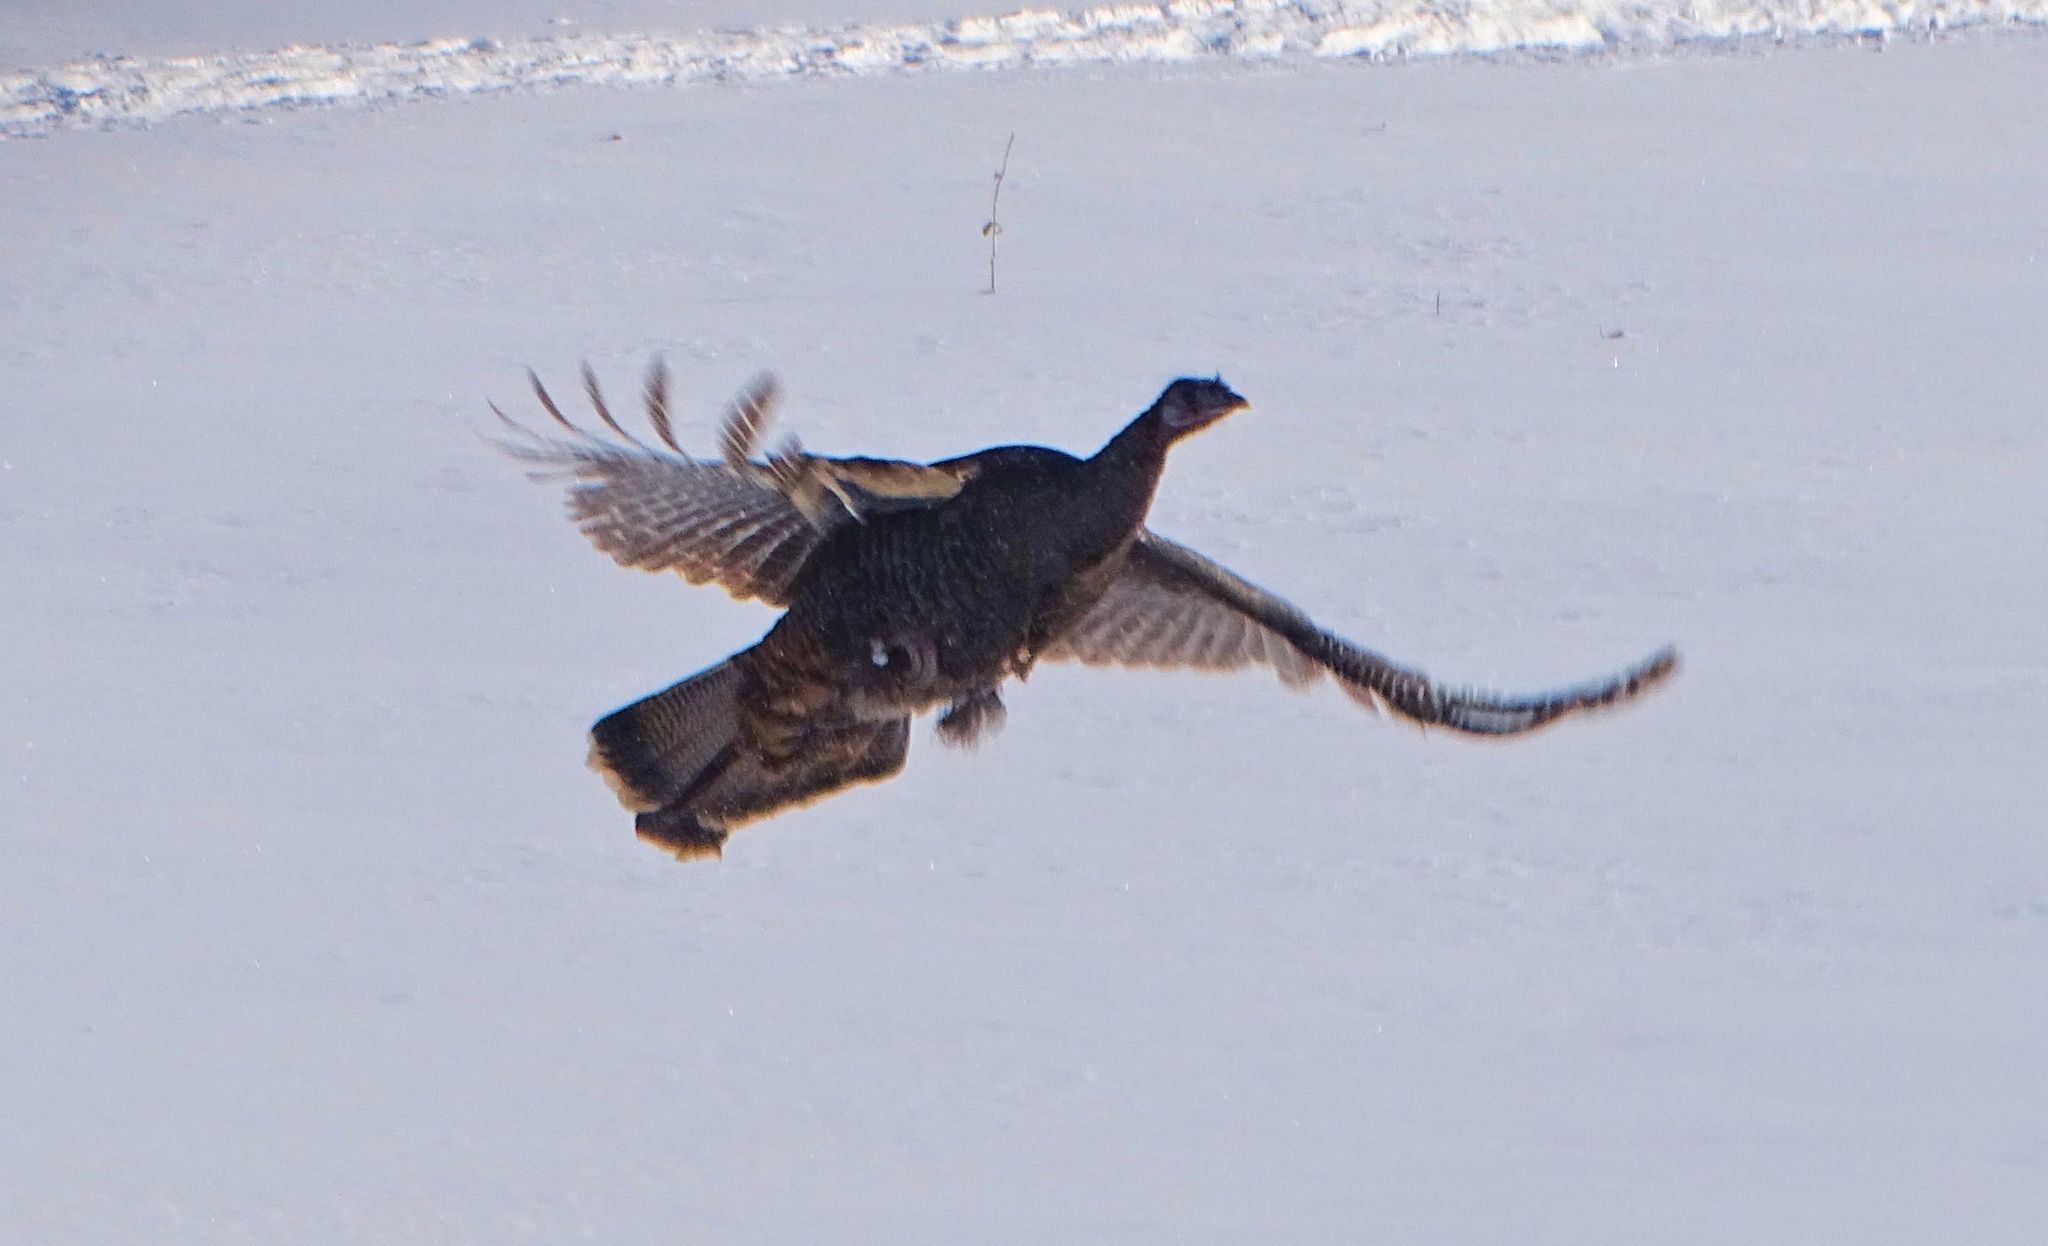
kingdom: Animalia
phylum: Chordata
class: Aves
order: Galliformes
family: Phasianidae
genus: Meleagris
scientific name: Meleagris gallopavo
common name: Wild turkey
